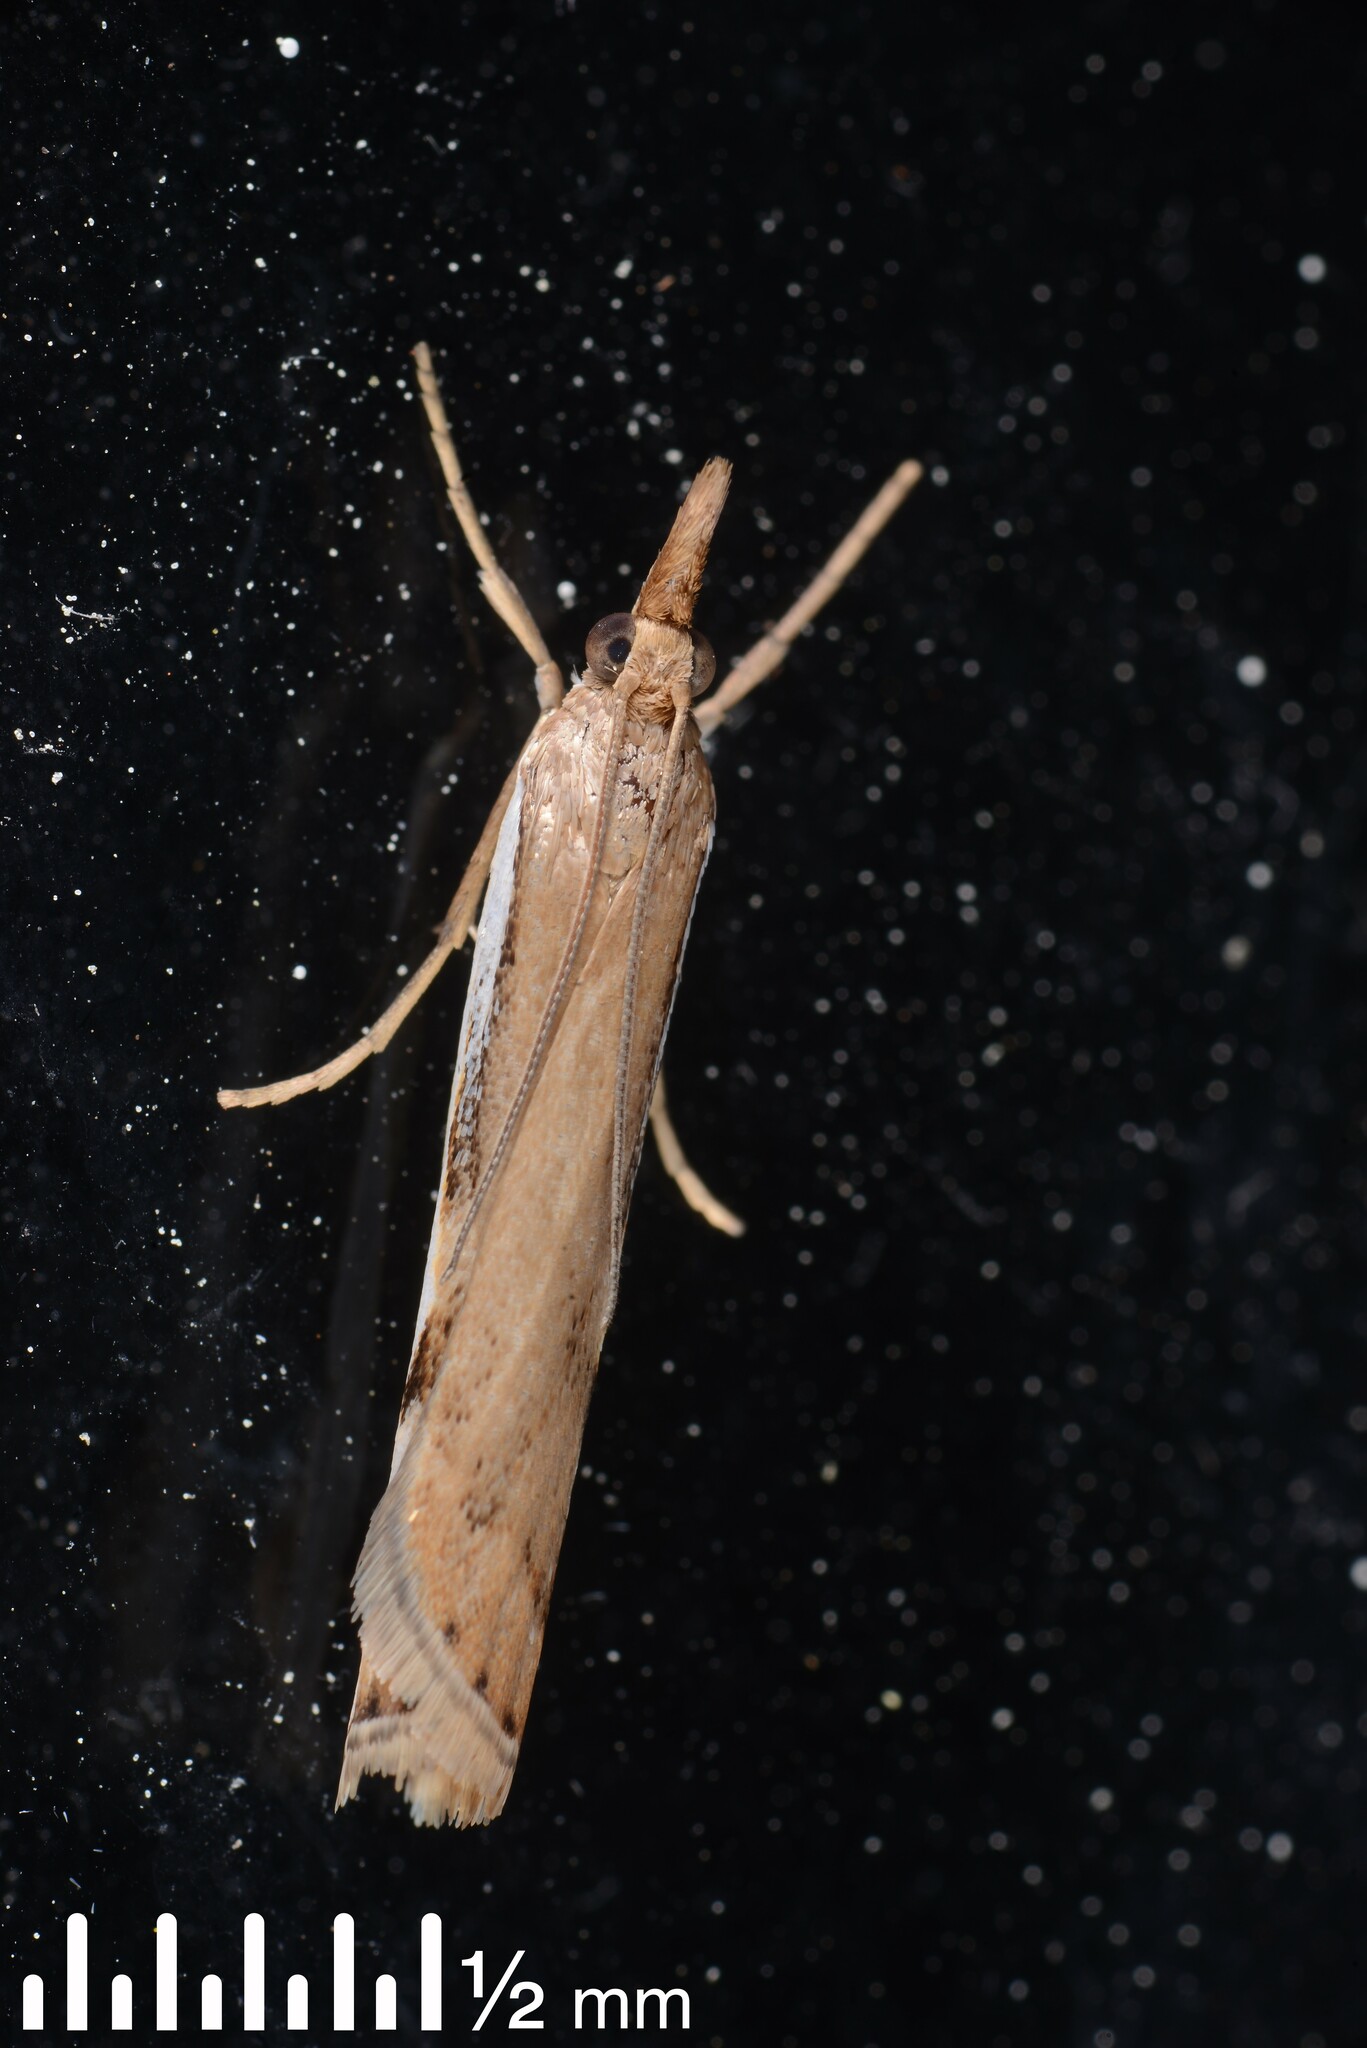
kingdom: Animalia
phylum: Arthropoda
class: Insecta
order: Lepidoptera
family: Crambidae
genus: Orocrambus
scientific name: Orocrambus flexuosellus
